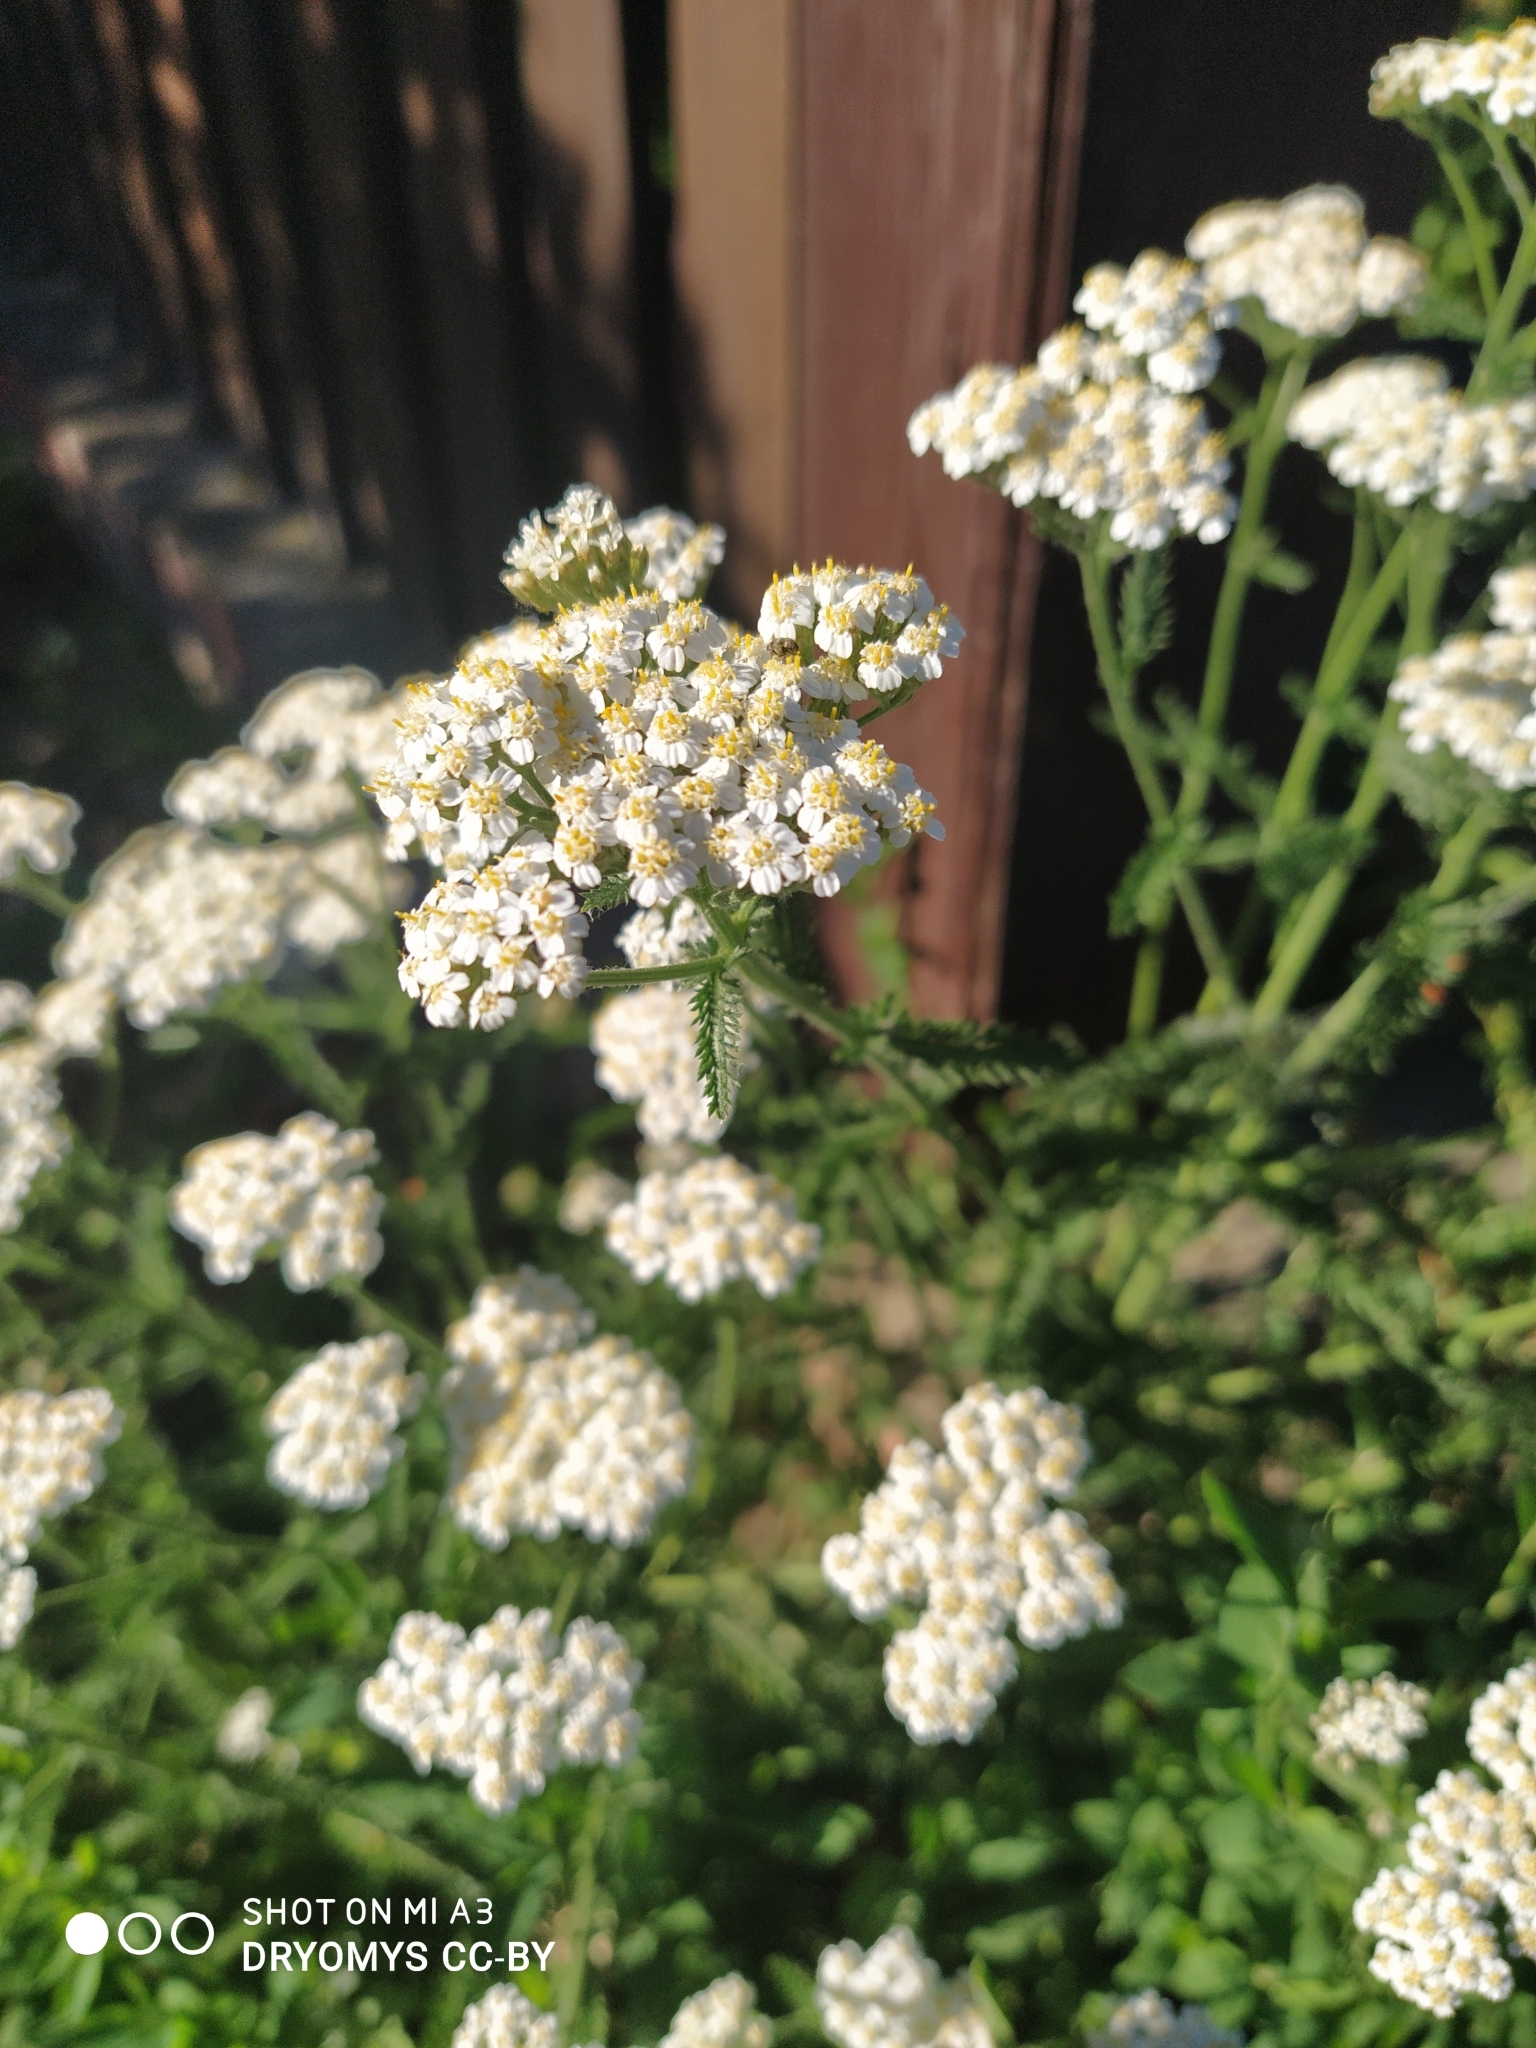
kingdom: Plantae
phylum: Tracheophyta
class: Magnoliopsida
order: Asterales
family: Asteraceae
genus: Achillea
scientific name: Achillea millefolium
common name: Yarrow
